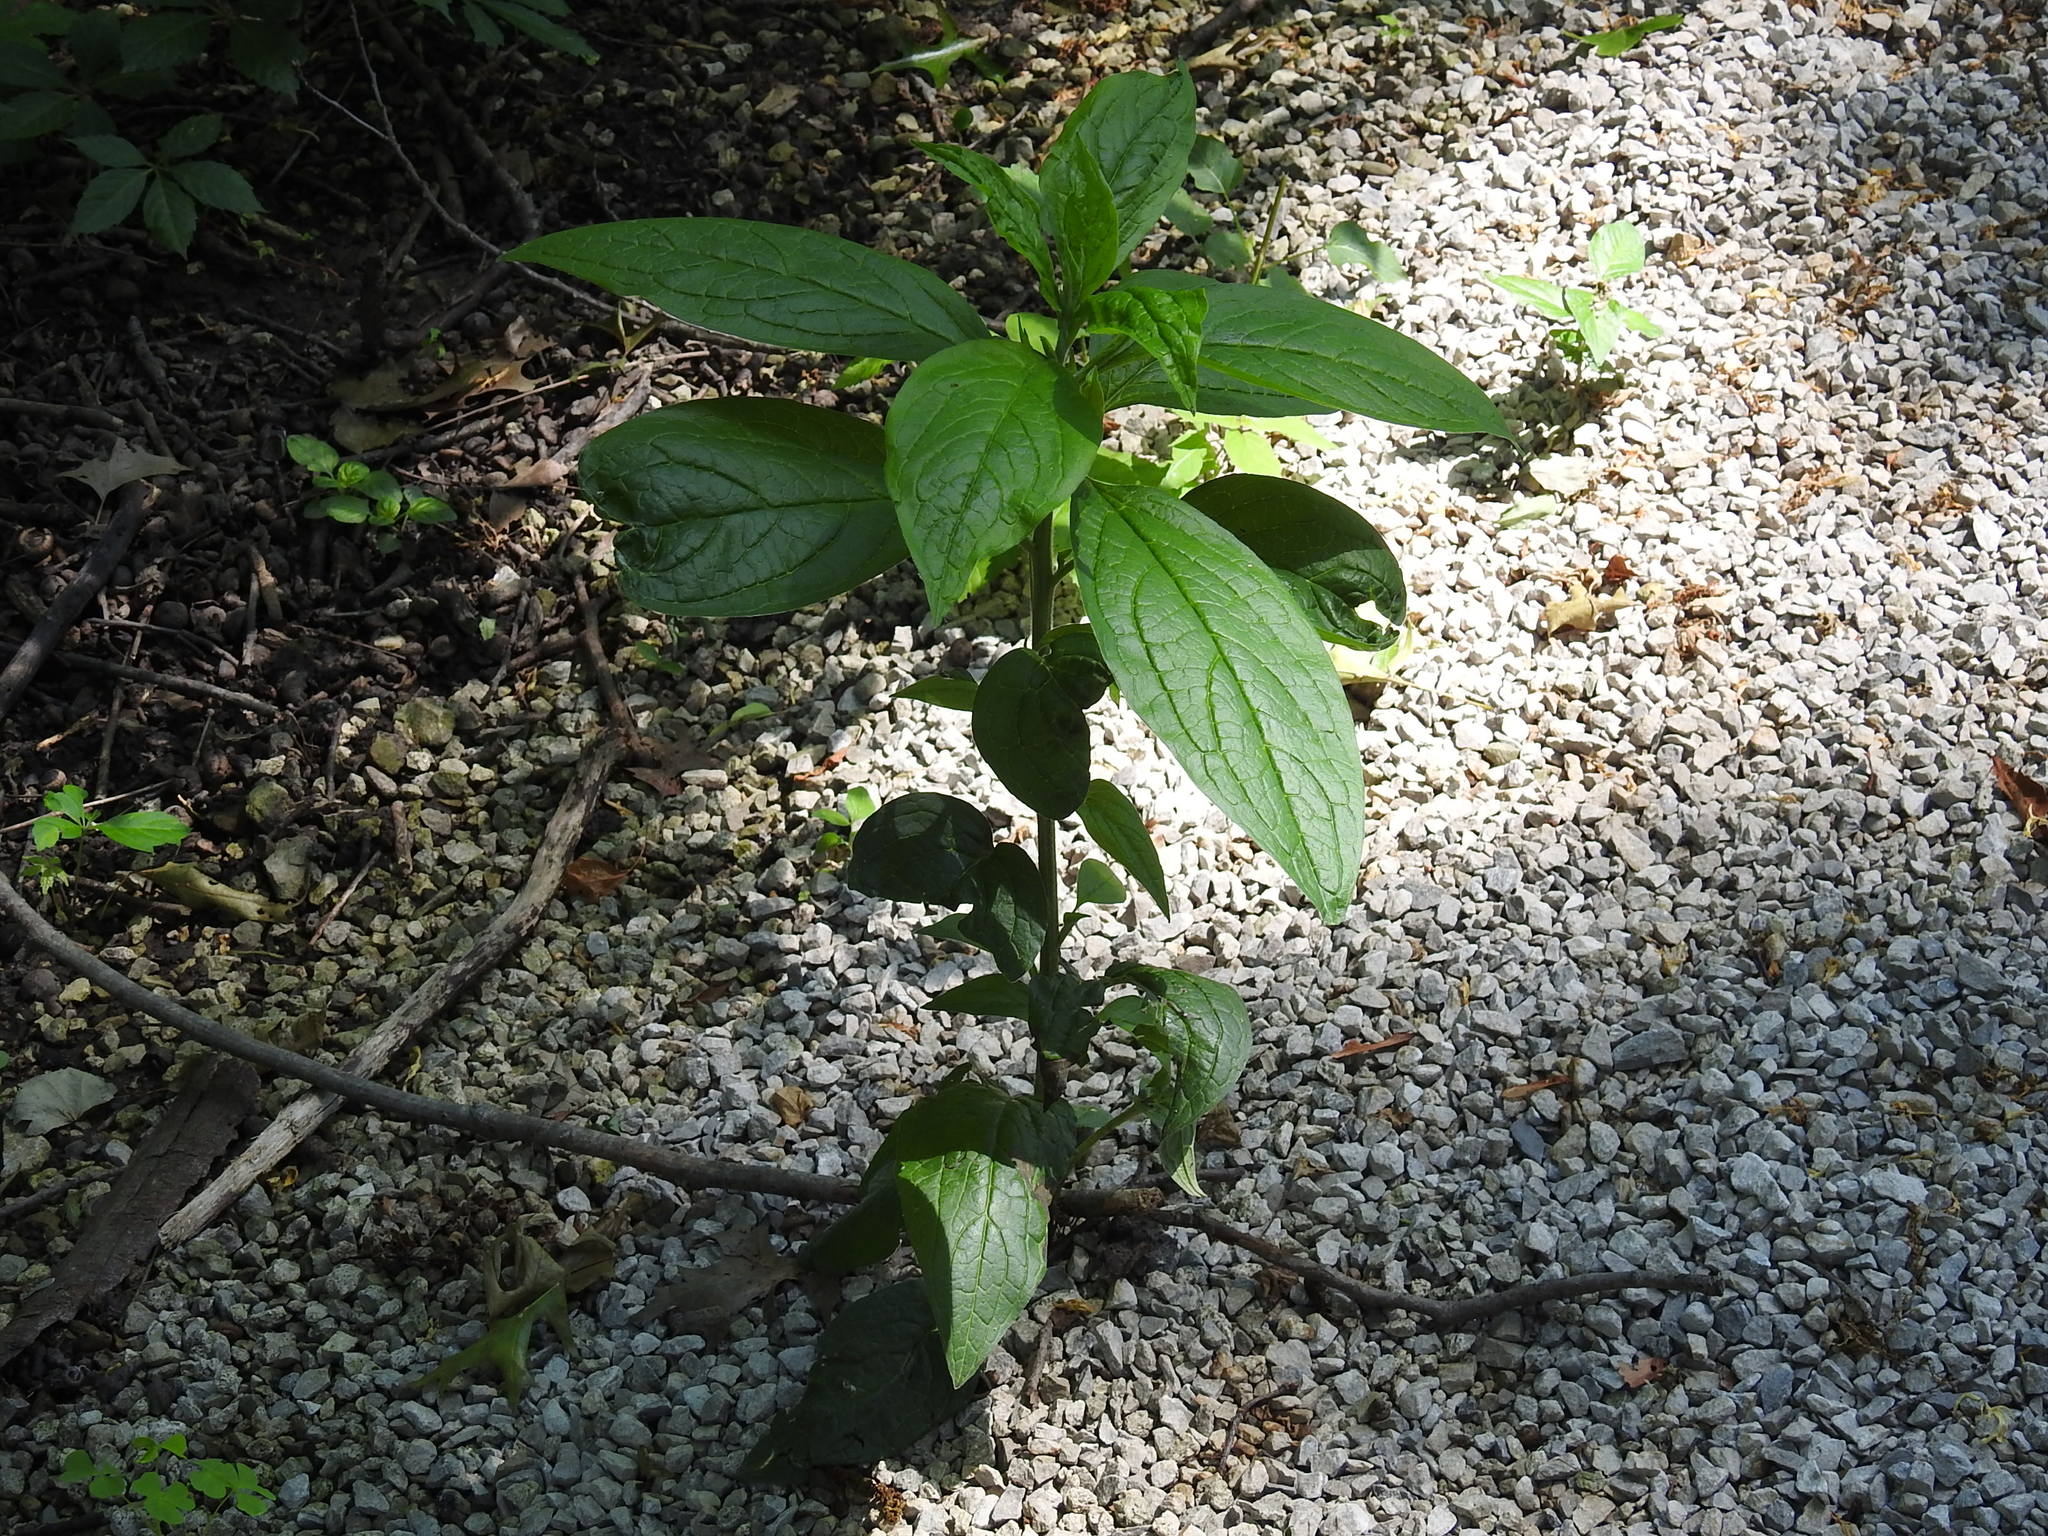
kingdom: Plantae
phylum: Tracheophyta
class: Magnoliopsida
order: Caryophyllales
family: Phytolaccaceae
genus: Phytolacca
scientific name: Phytolacca americana
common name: American pokeweed
